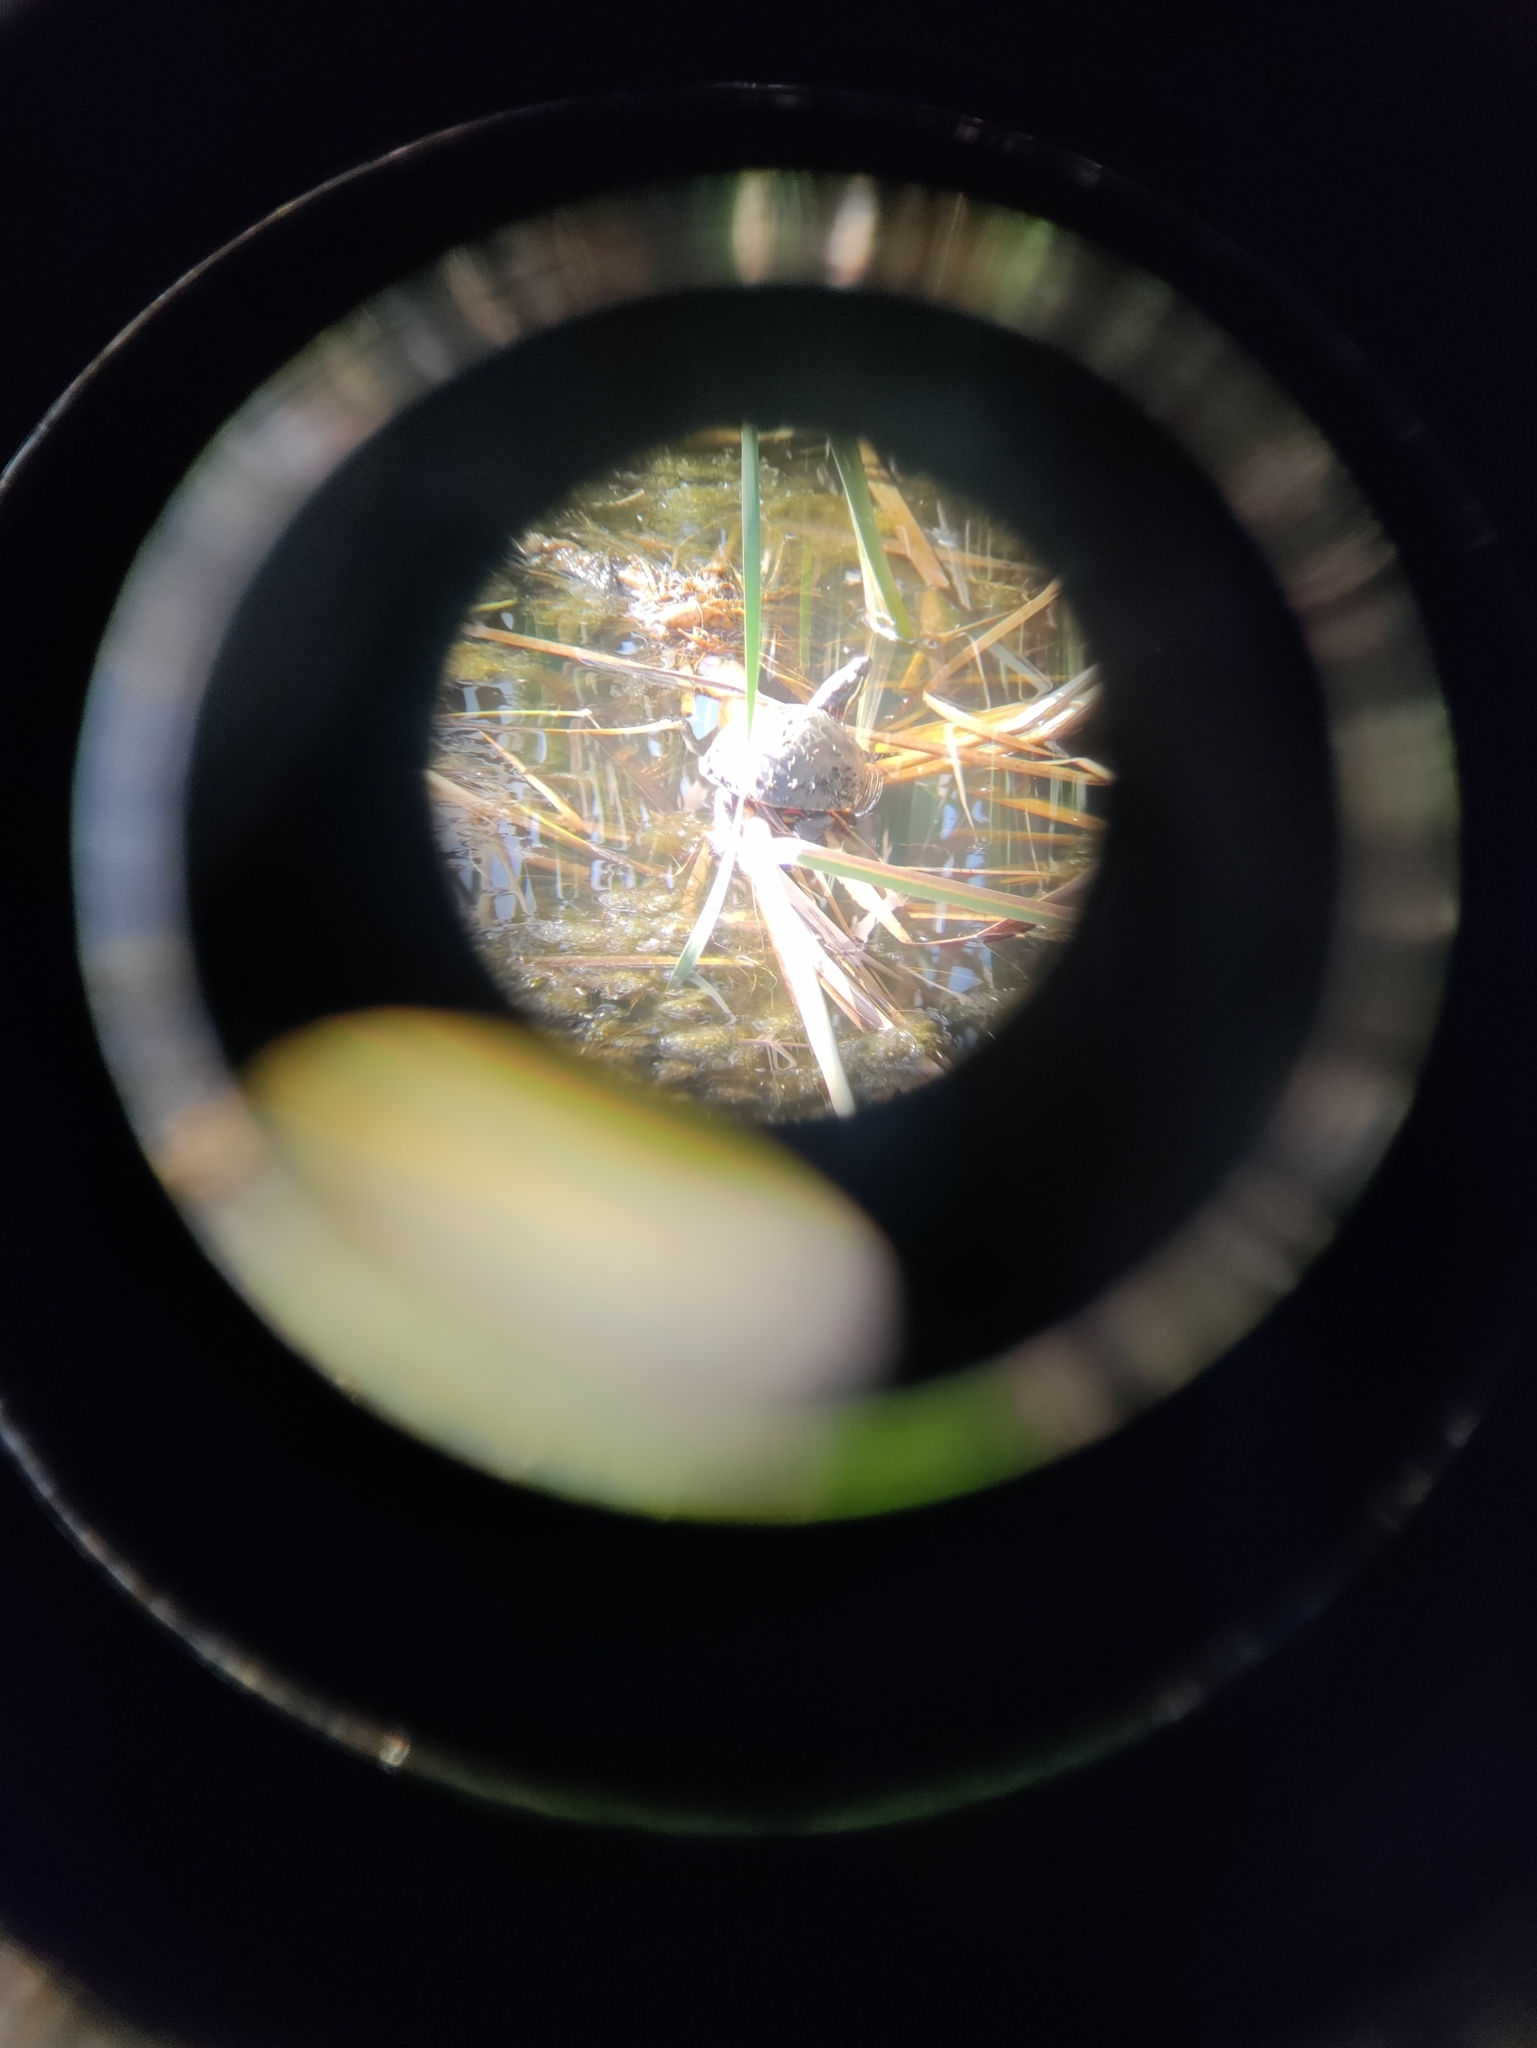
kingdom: Animalia
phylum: Chordata
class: Testudines
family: Emydidae
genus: Chrysemys
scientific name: Chrysemys picta
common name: Painted turtle
